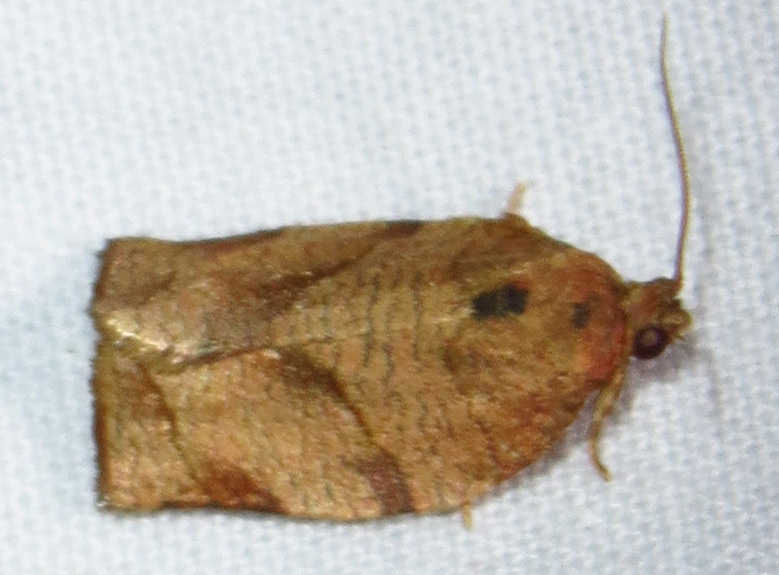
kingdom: Animalia
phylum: Arthropoda
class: Insecta
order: Lepidoptera
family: Tortricidae
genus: Choristoneura
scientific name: Choristoneura rosaceana
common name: Oblique-banded leafroller moth
